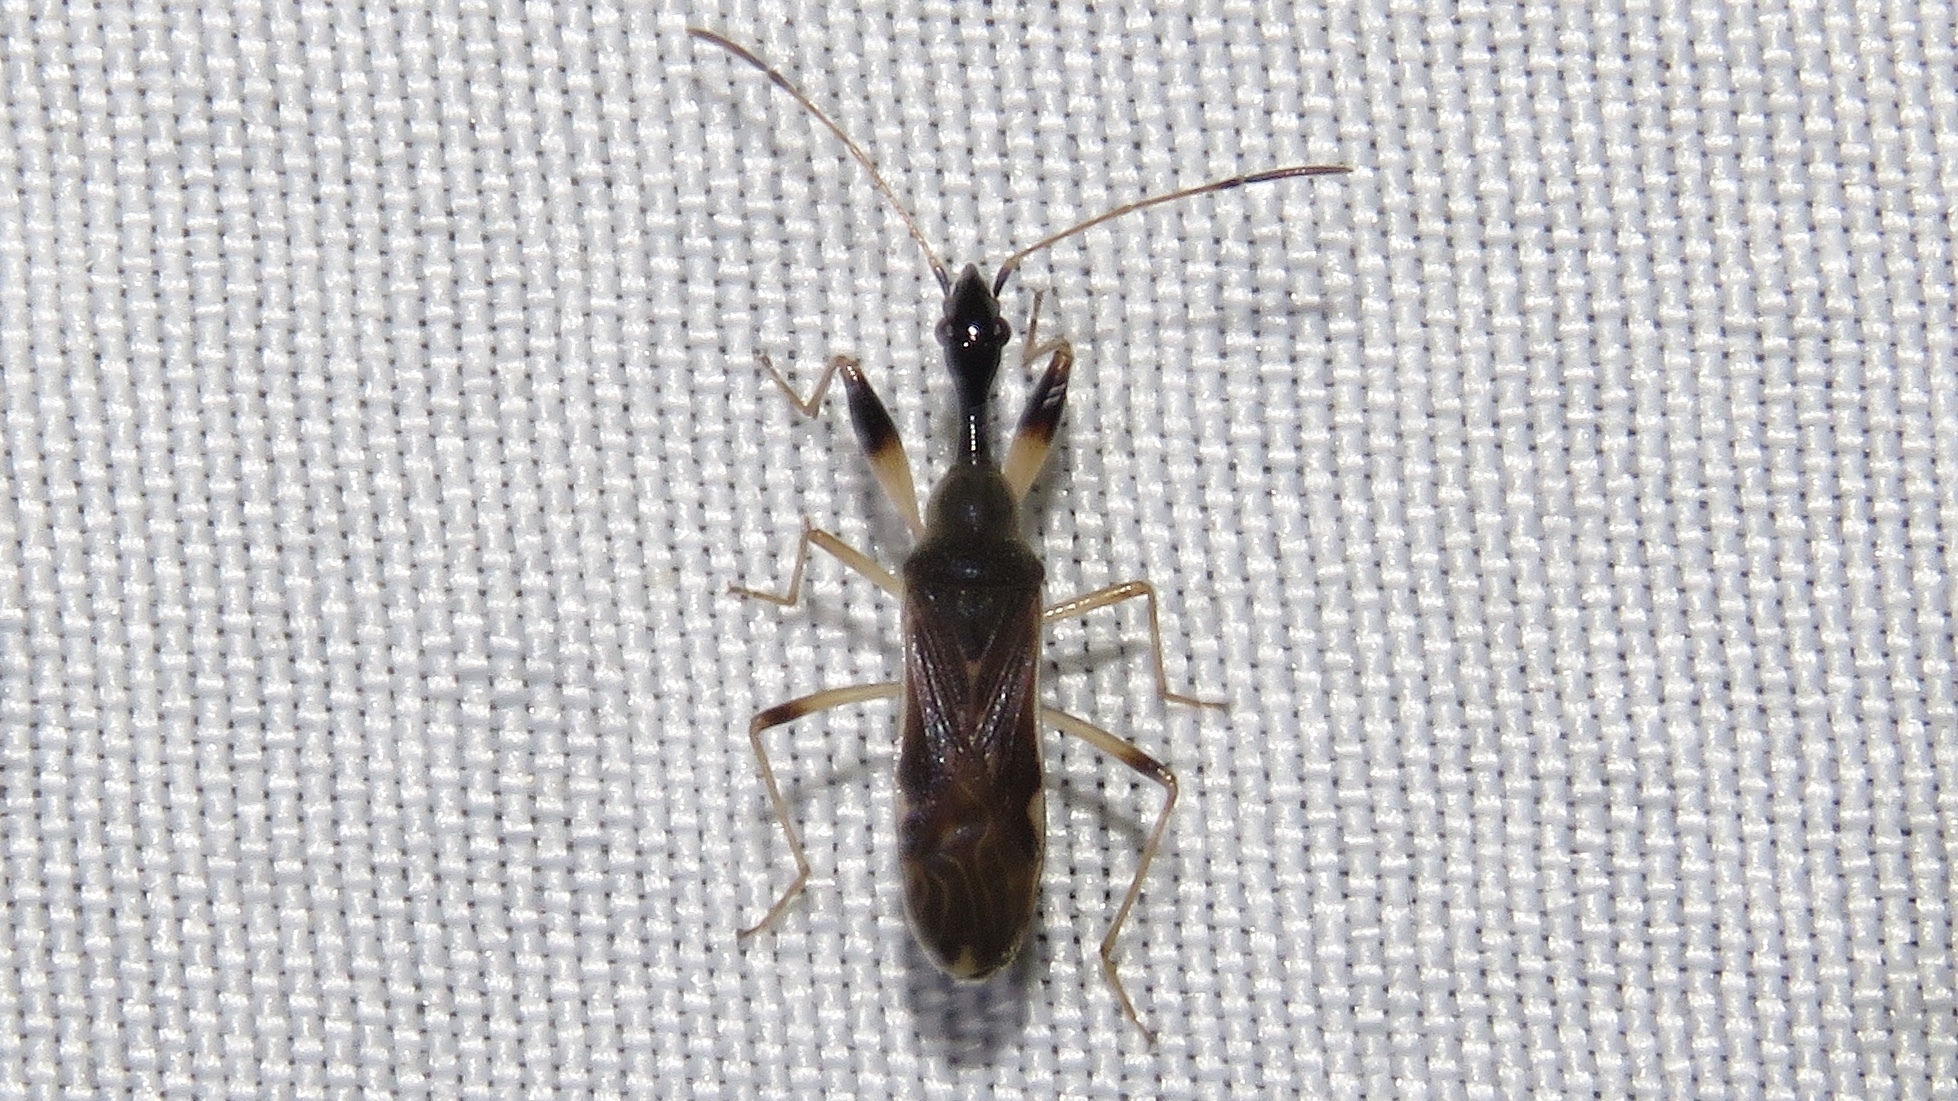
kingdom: Animalia
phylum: Arthropoda
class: Insecta
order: Hemiptera
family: Rhyparochromidae
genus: Myodocha
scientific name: Myodocha serripes
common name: Long-necked seed bug
